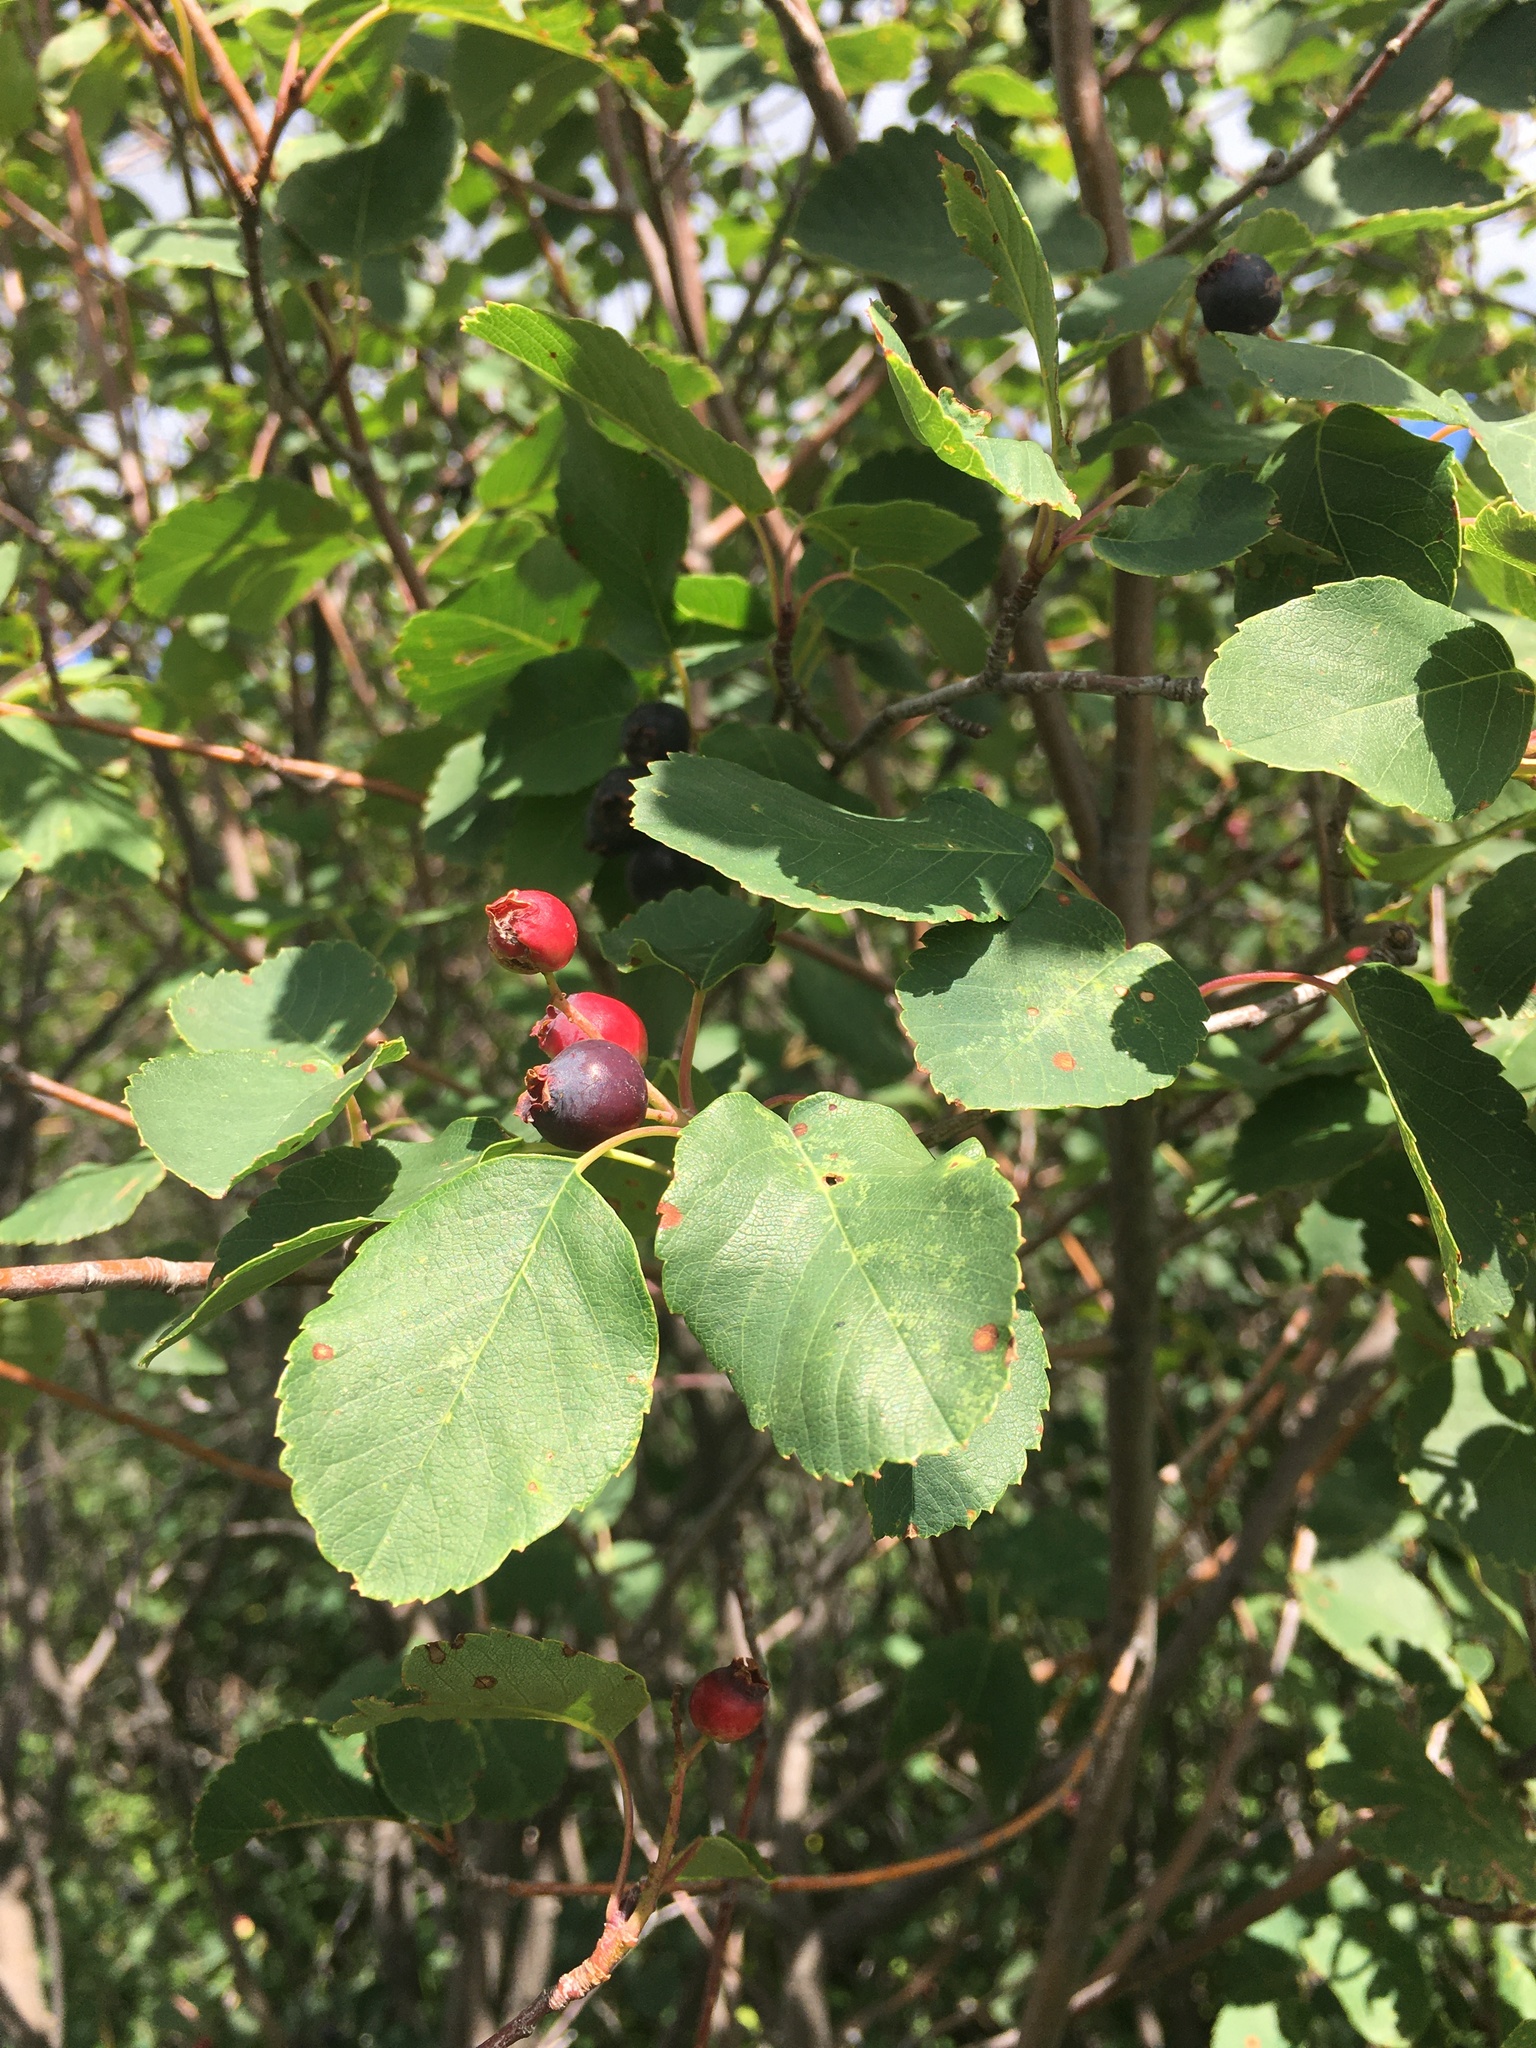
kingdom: Plantae
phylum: Tracheophyta
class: Magnoliopsida
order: Rosales
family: Rosaceae
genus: Amelanchier
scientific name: Amelanchier alnifolia
